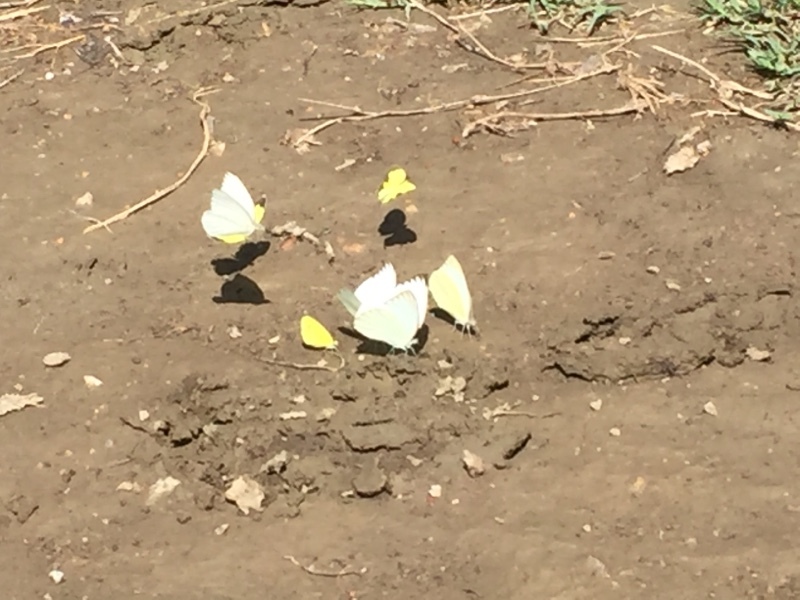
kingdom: Animalia
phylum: Arthropoda
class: Insecta
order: Lepidoptera
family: Pieridae
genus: Ascia
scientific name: Ascia monuste
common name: Great southern white
